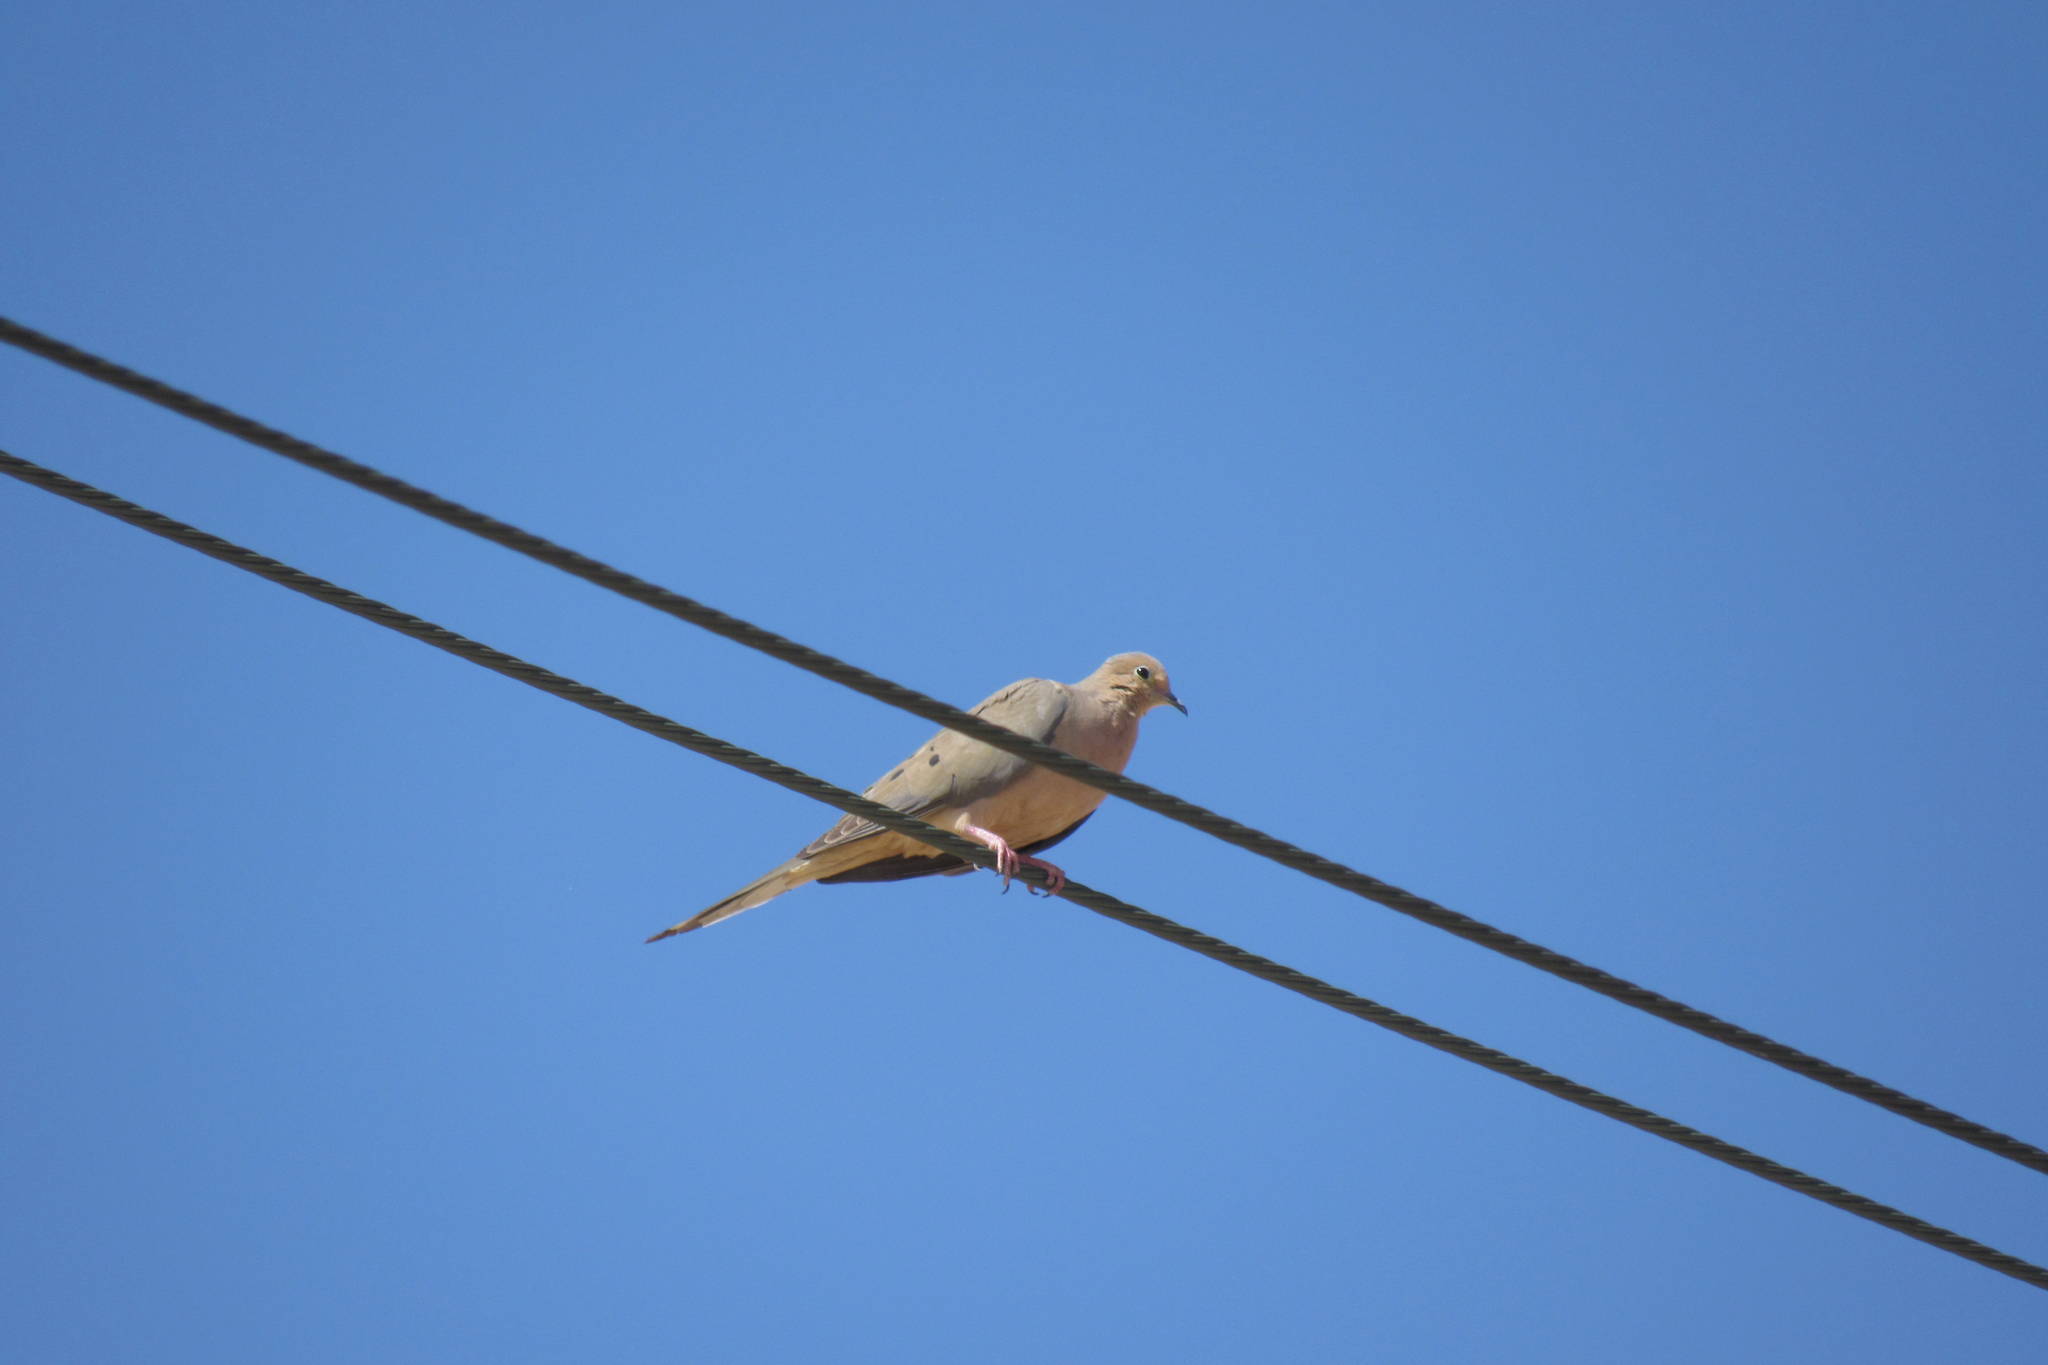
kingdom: Animalia
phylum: Chordata
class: Aves
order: Columbiformes
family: Columbidae
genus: Zenaida
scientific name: Zenaida macroura
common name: Mourning dove
